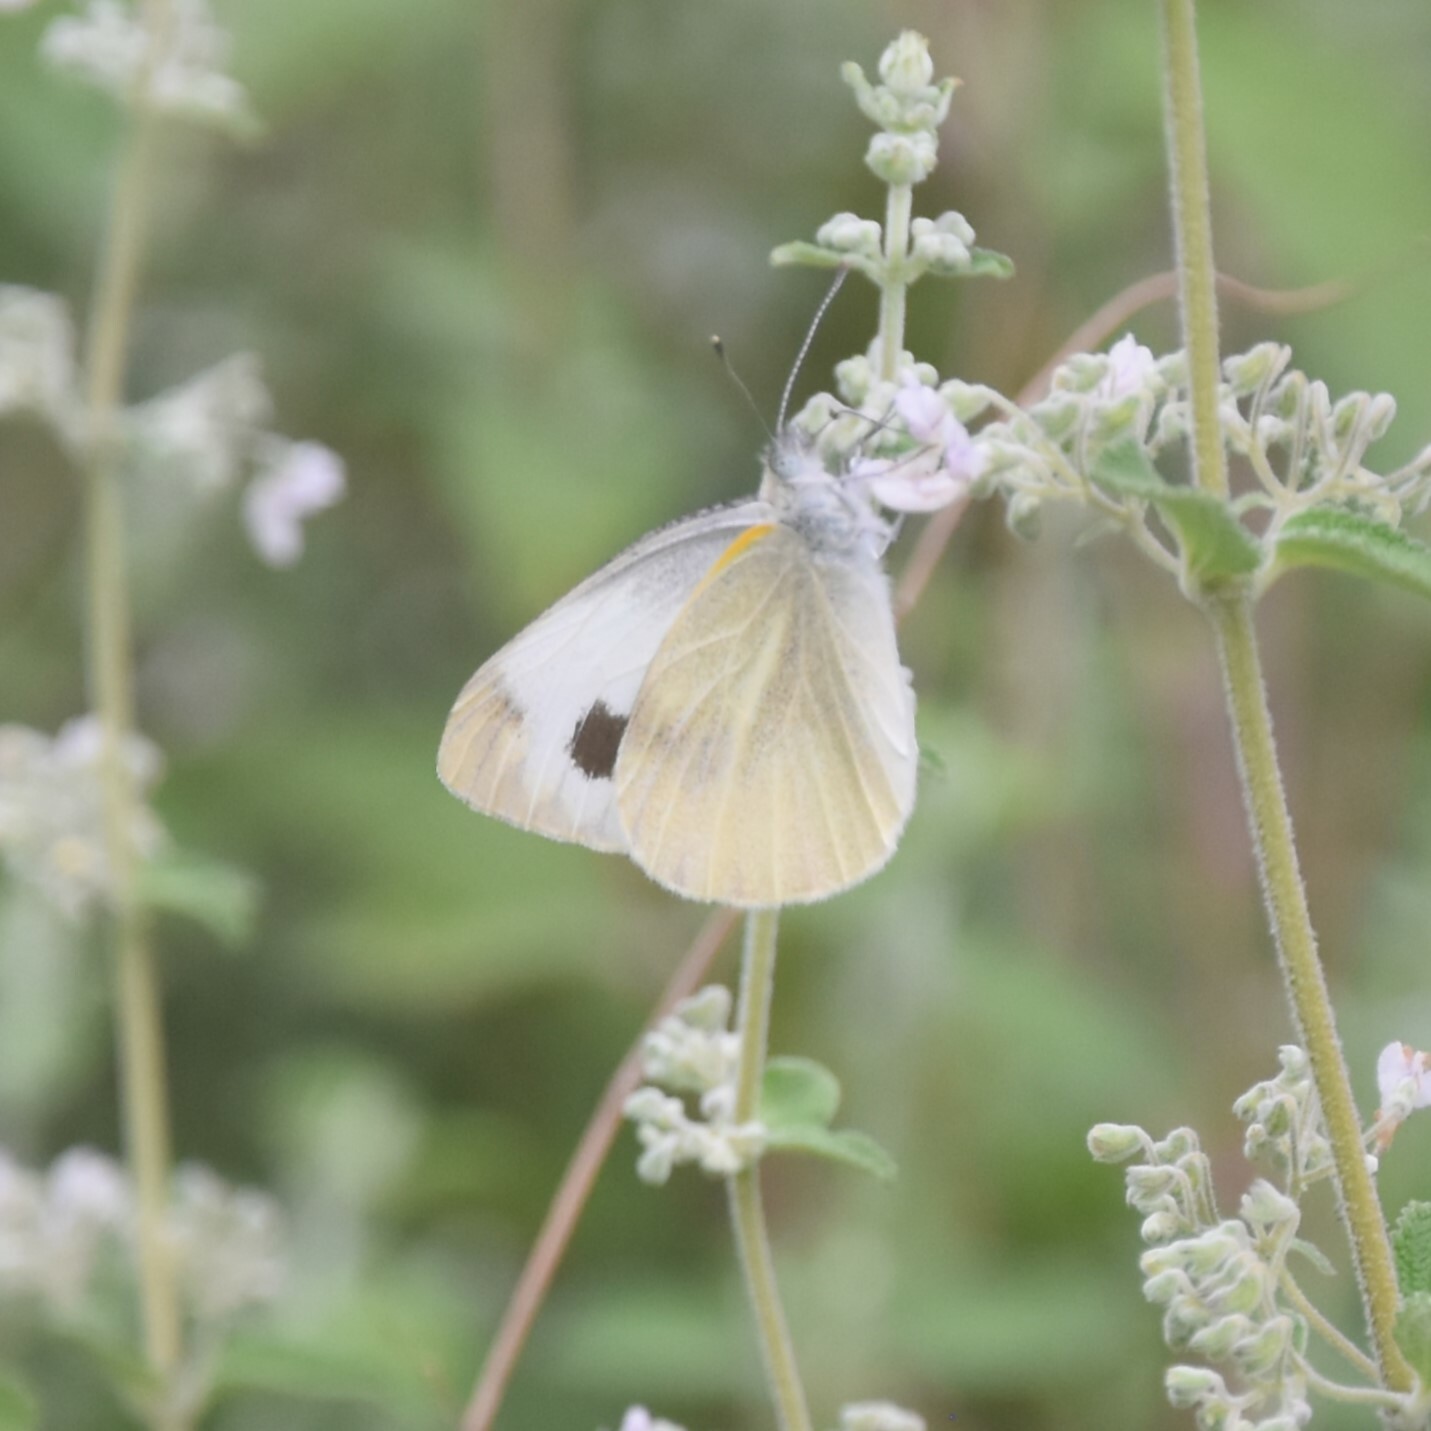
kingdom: Animalia
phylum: Arthropoda
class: Insecta
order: Lepidoptera
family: Pieridae
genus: Pieris
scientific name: Pieris canidia
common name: Indian cabbage white
